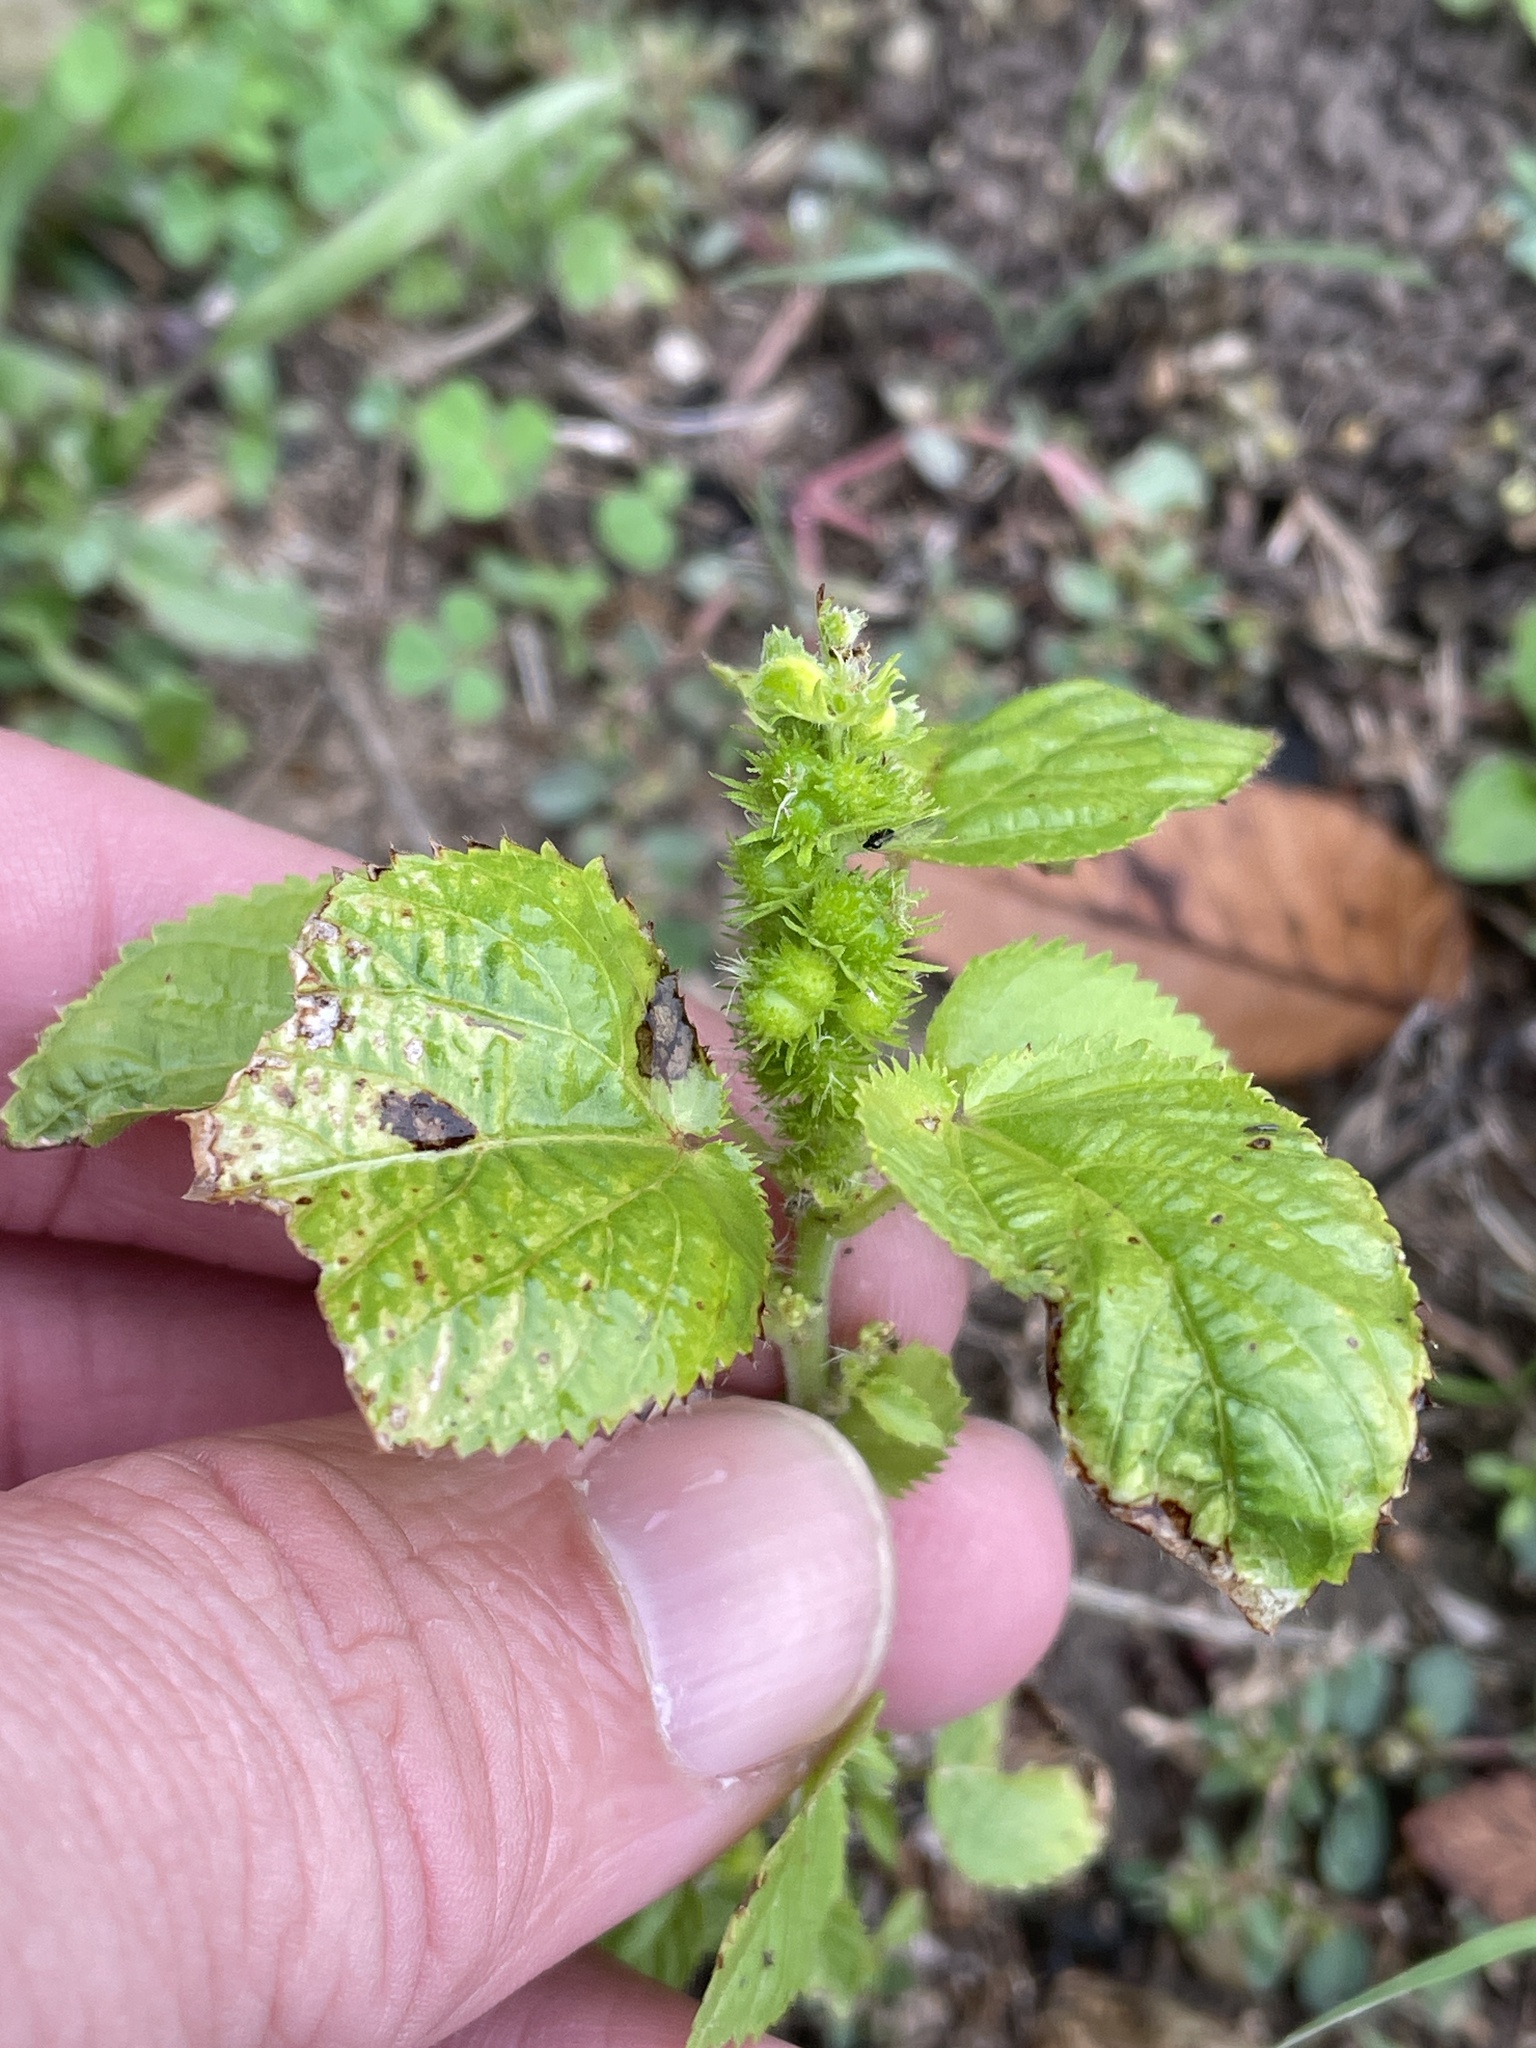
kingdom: Plantae
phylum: Tracheophyta
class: Magnoliopsida
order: Malpighiales
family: Euphorbiaceae
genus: Acalypha
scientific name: Acalypha ostryifolia
